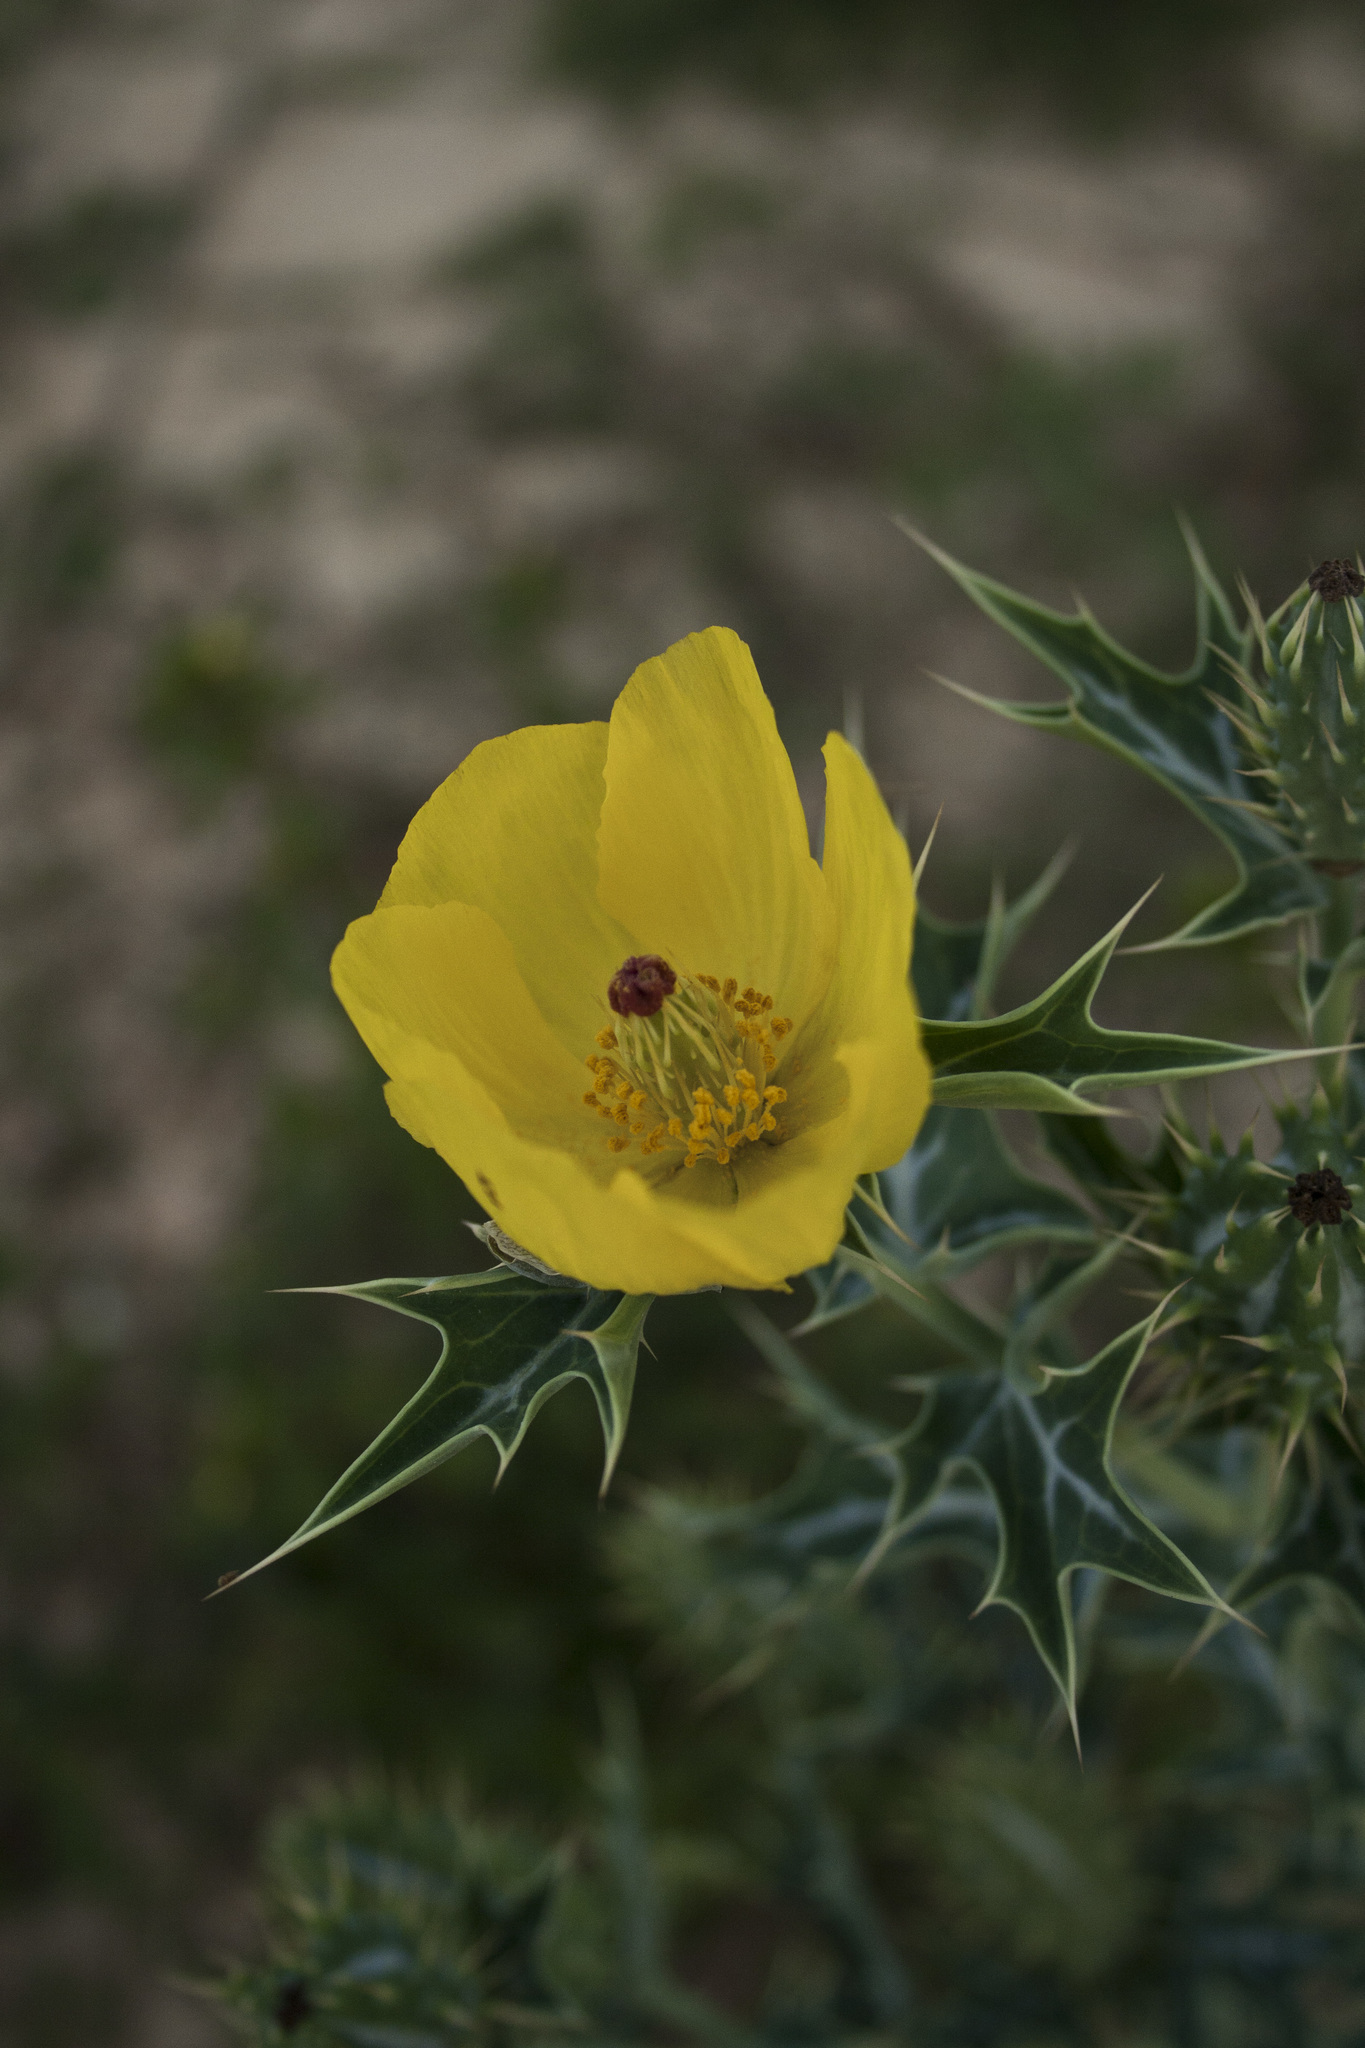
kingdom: Plantae
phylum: Tracheophyta
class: Magnoliopsida
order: Ranunculales
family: Papaveraceae
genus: Argemone
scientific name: Argemone mexicana
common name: Mexican poppy
